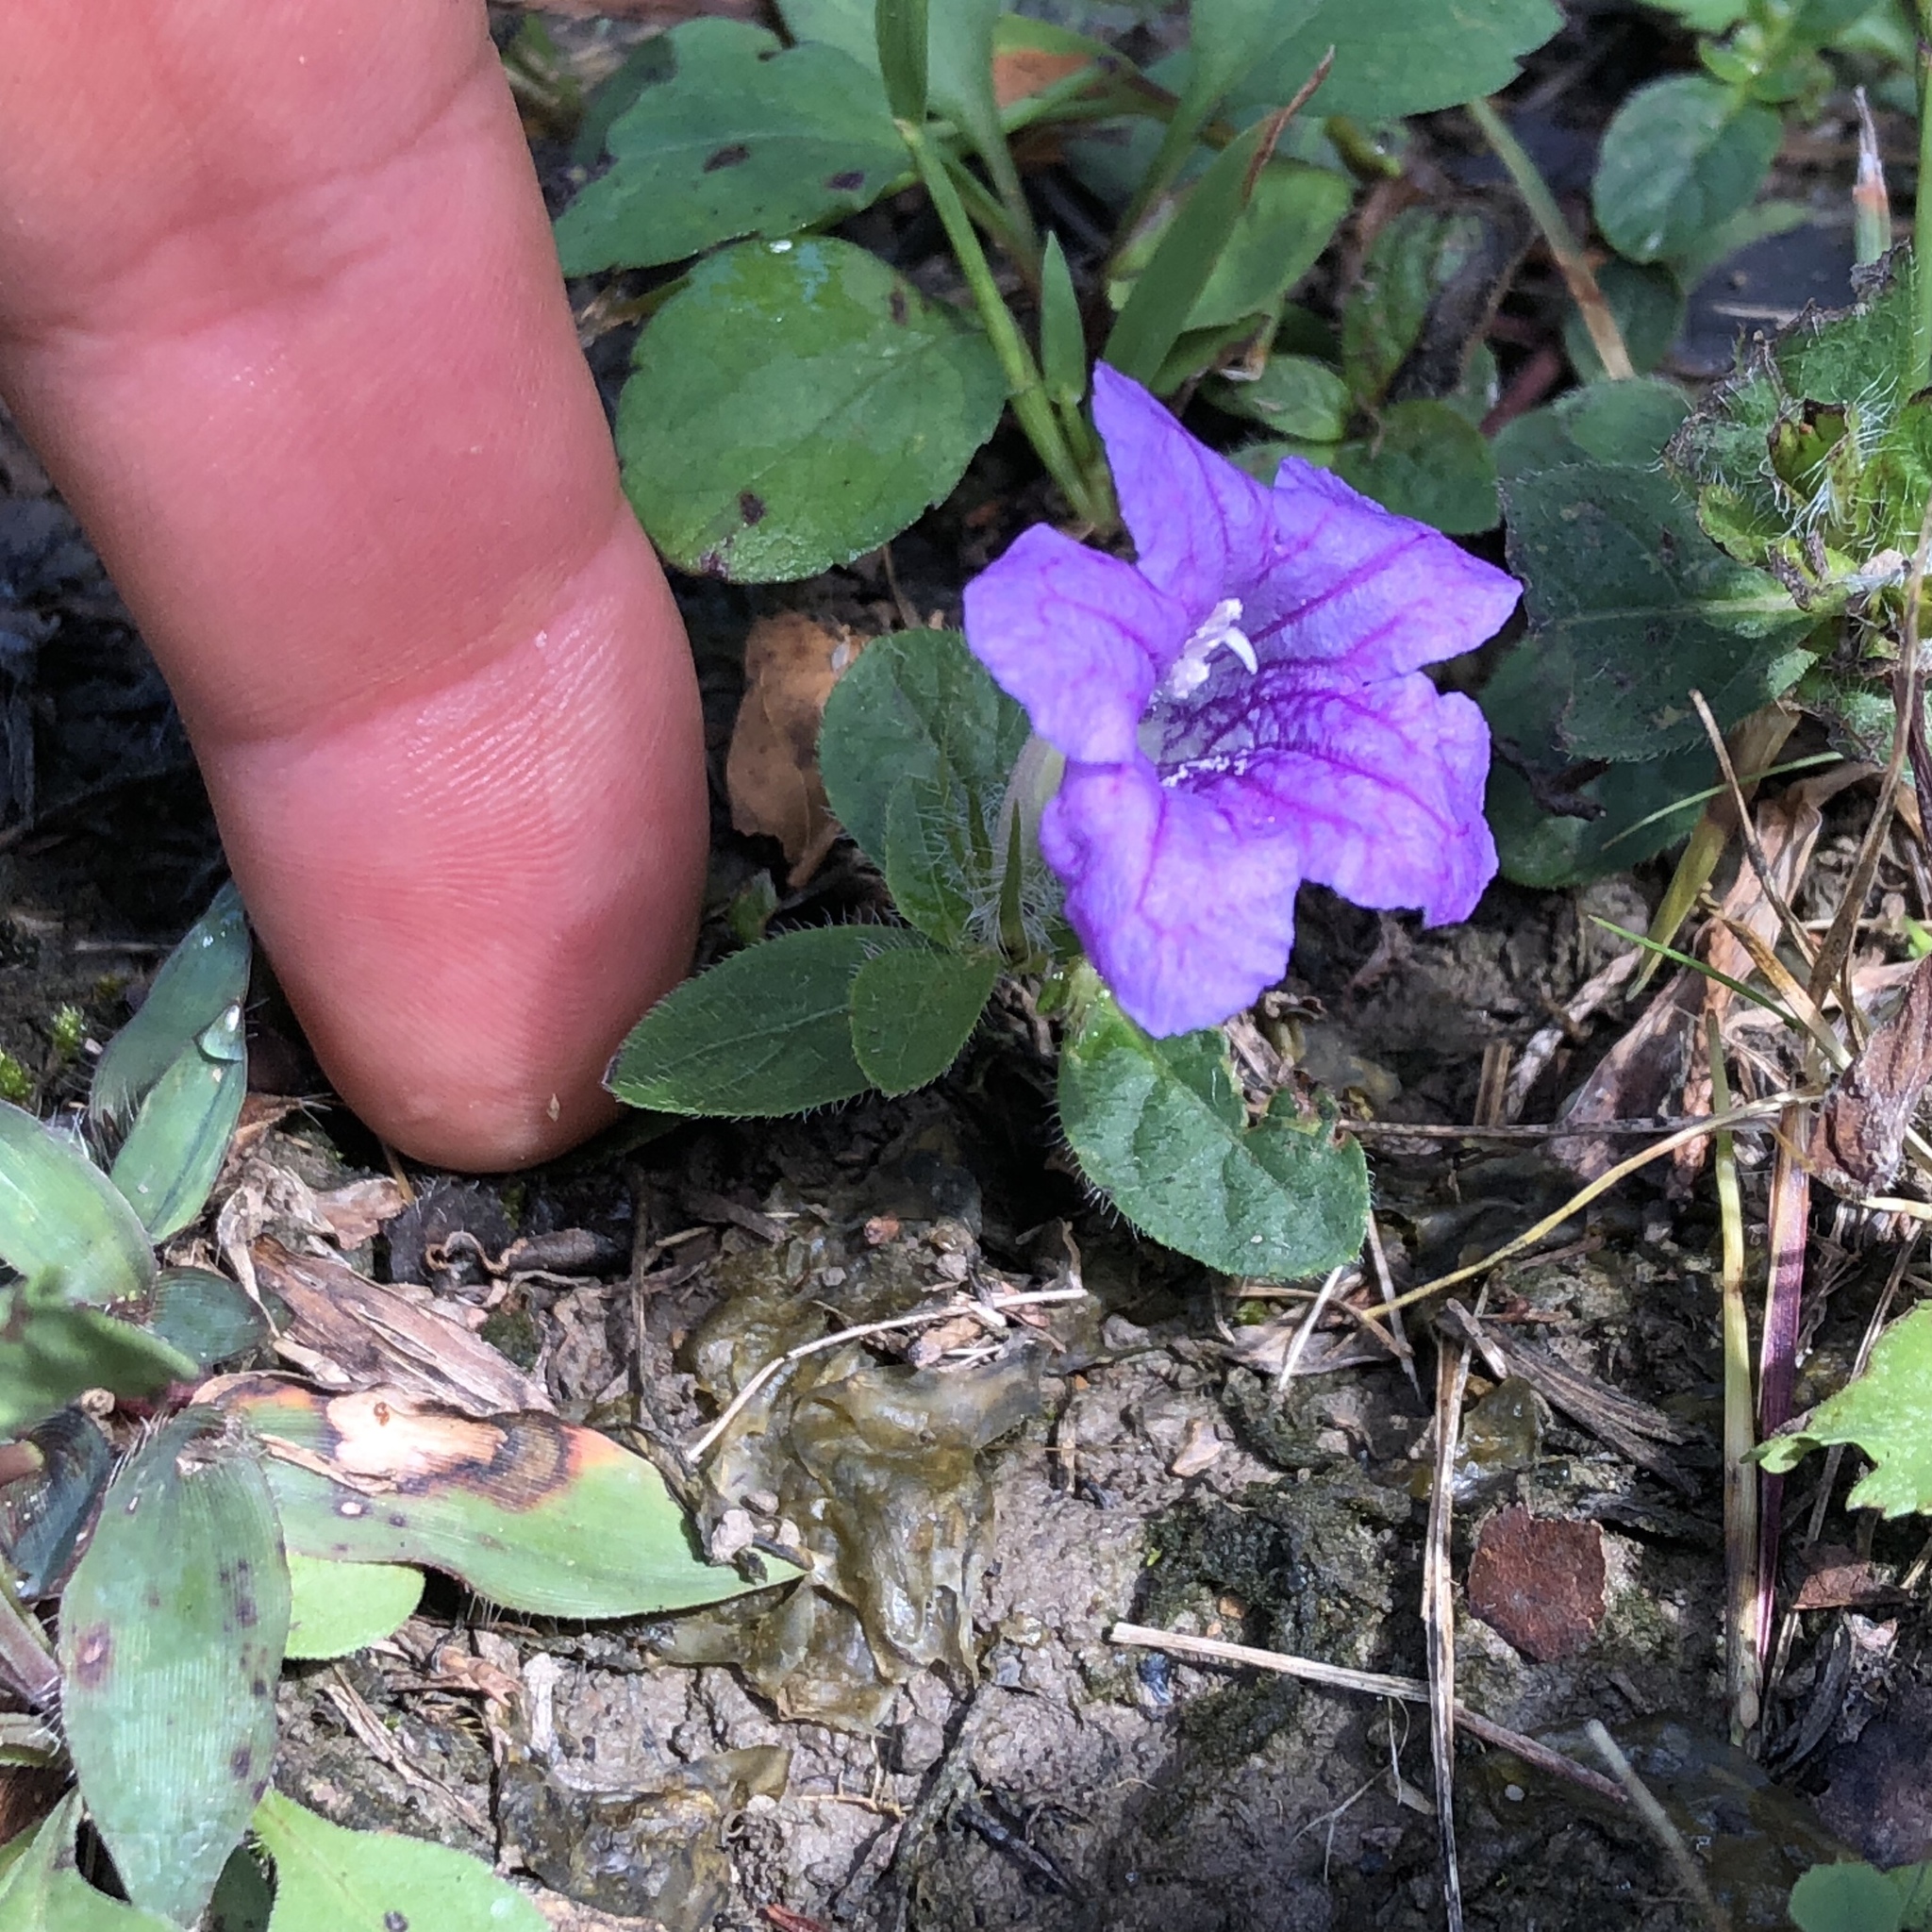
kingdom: Plantae
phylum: Tracheophyta
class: Magnoliopsida
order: Lamiales
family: Acanthaceae
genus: Ruellia
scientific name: Ruellia humilis
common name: Fringe-leaf ruellia
